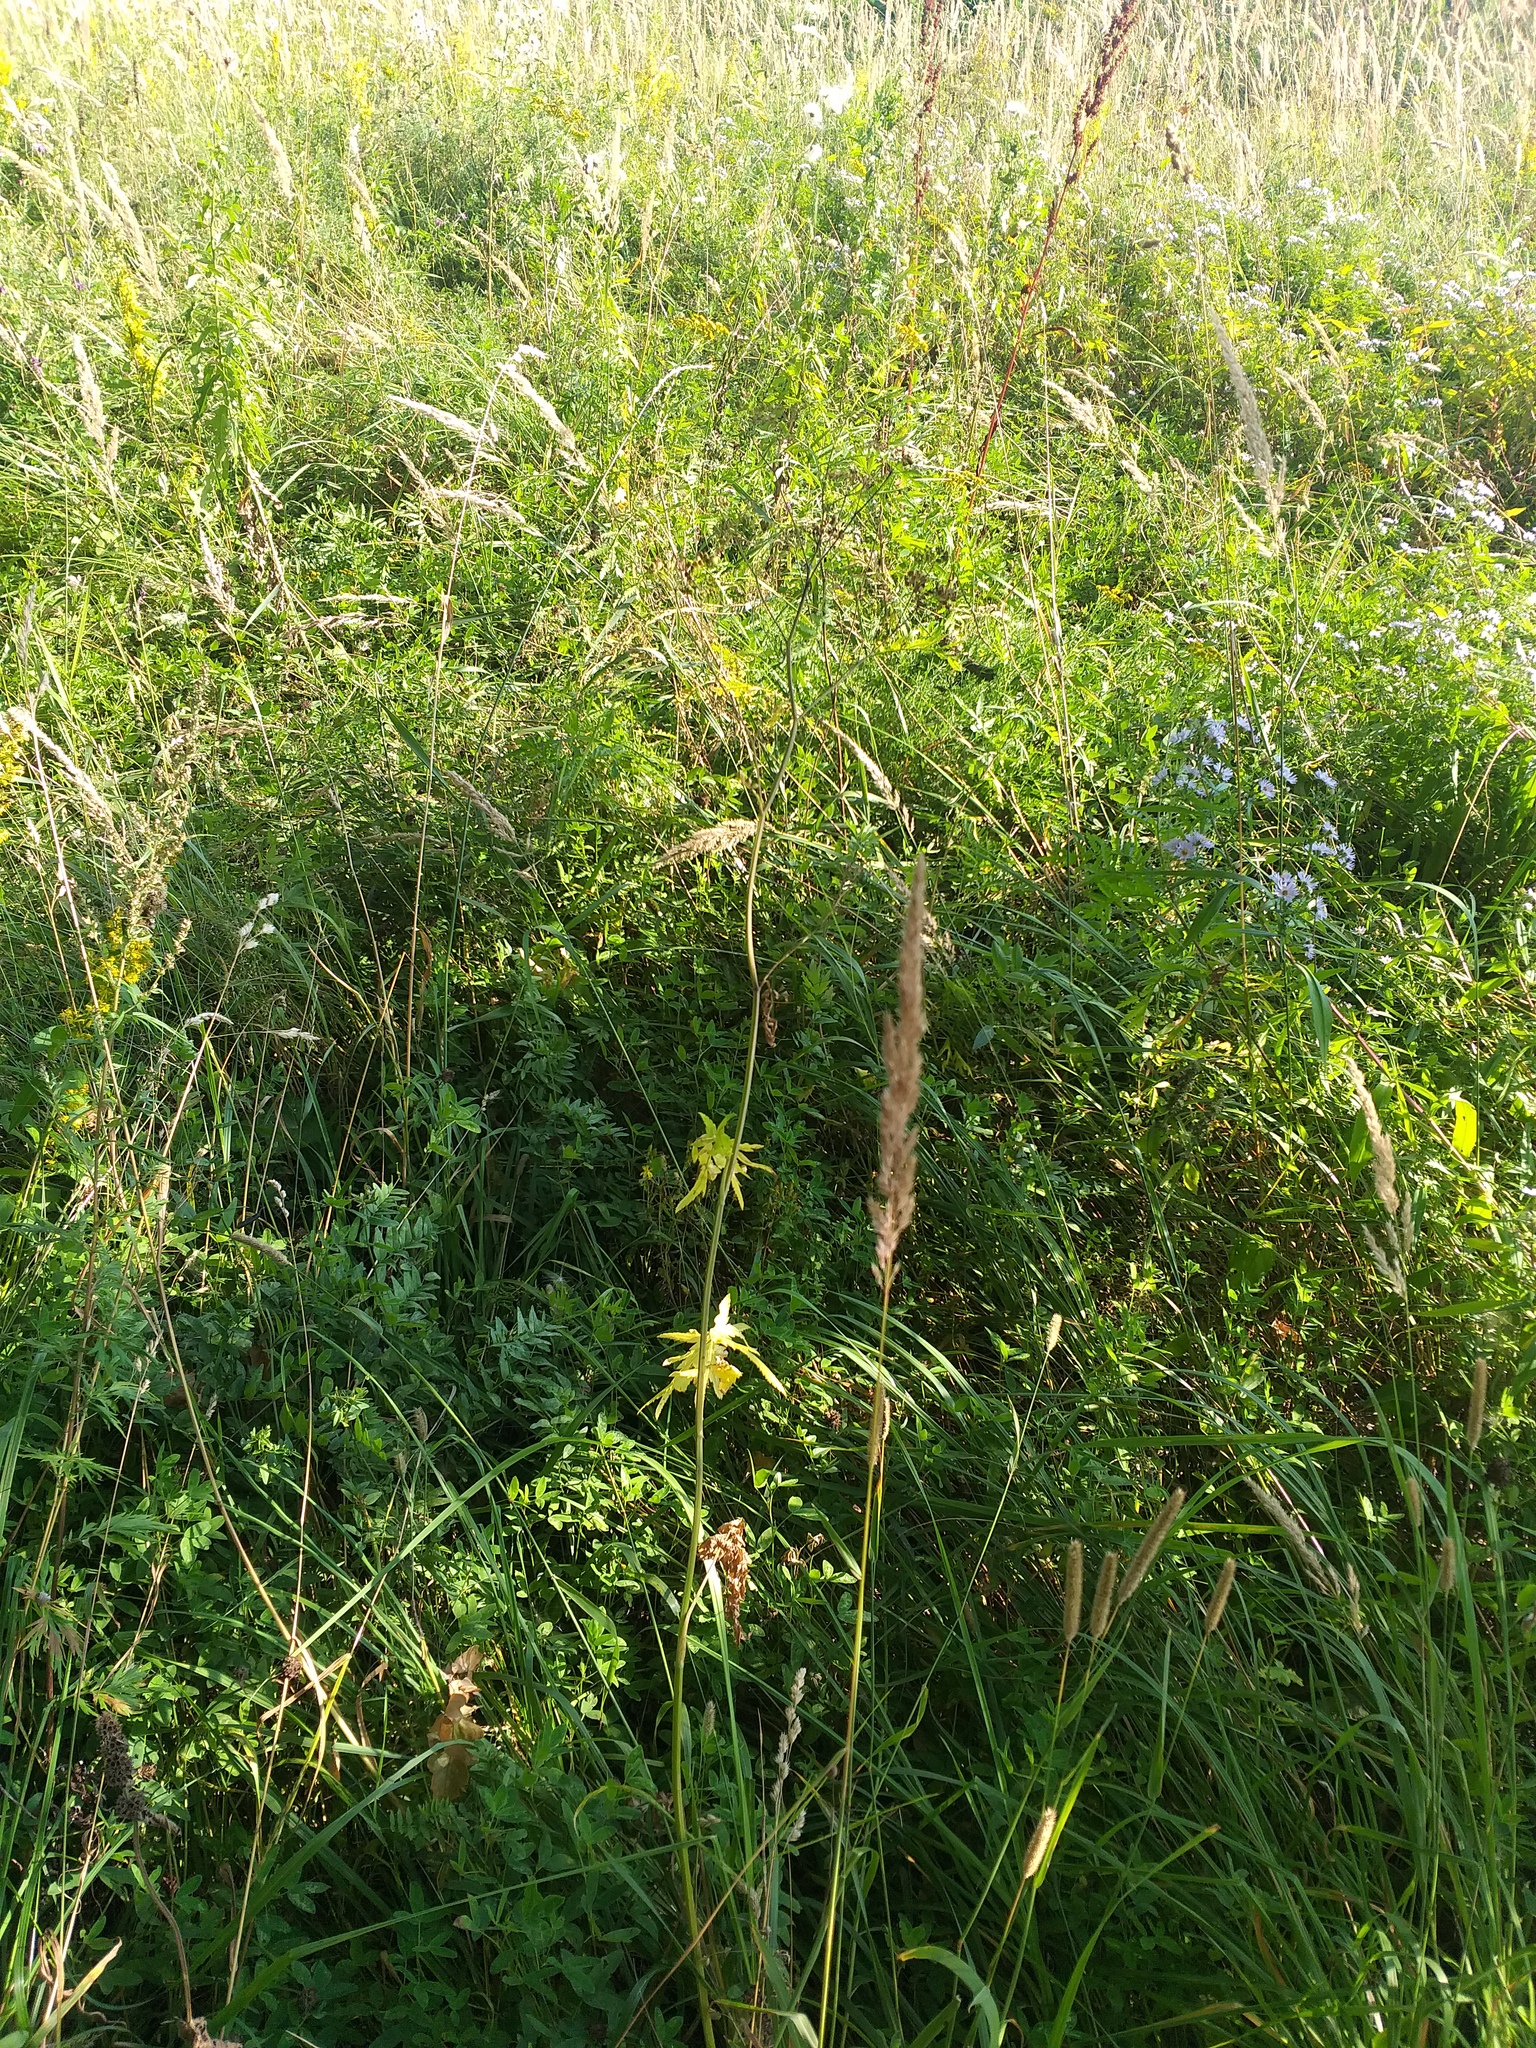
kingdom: Plantae
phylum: Tracheophyta
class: Magnoliopsida
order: Apiales
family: Apiaceae
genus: Pastinaca
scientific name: Pastinaca sativa
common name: Wild parsnip
